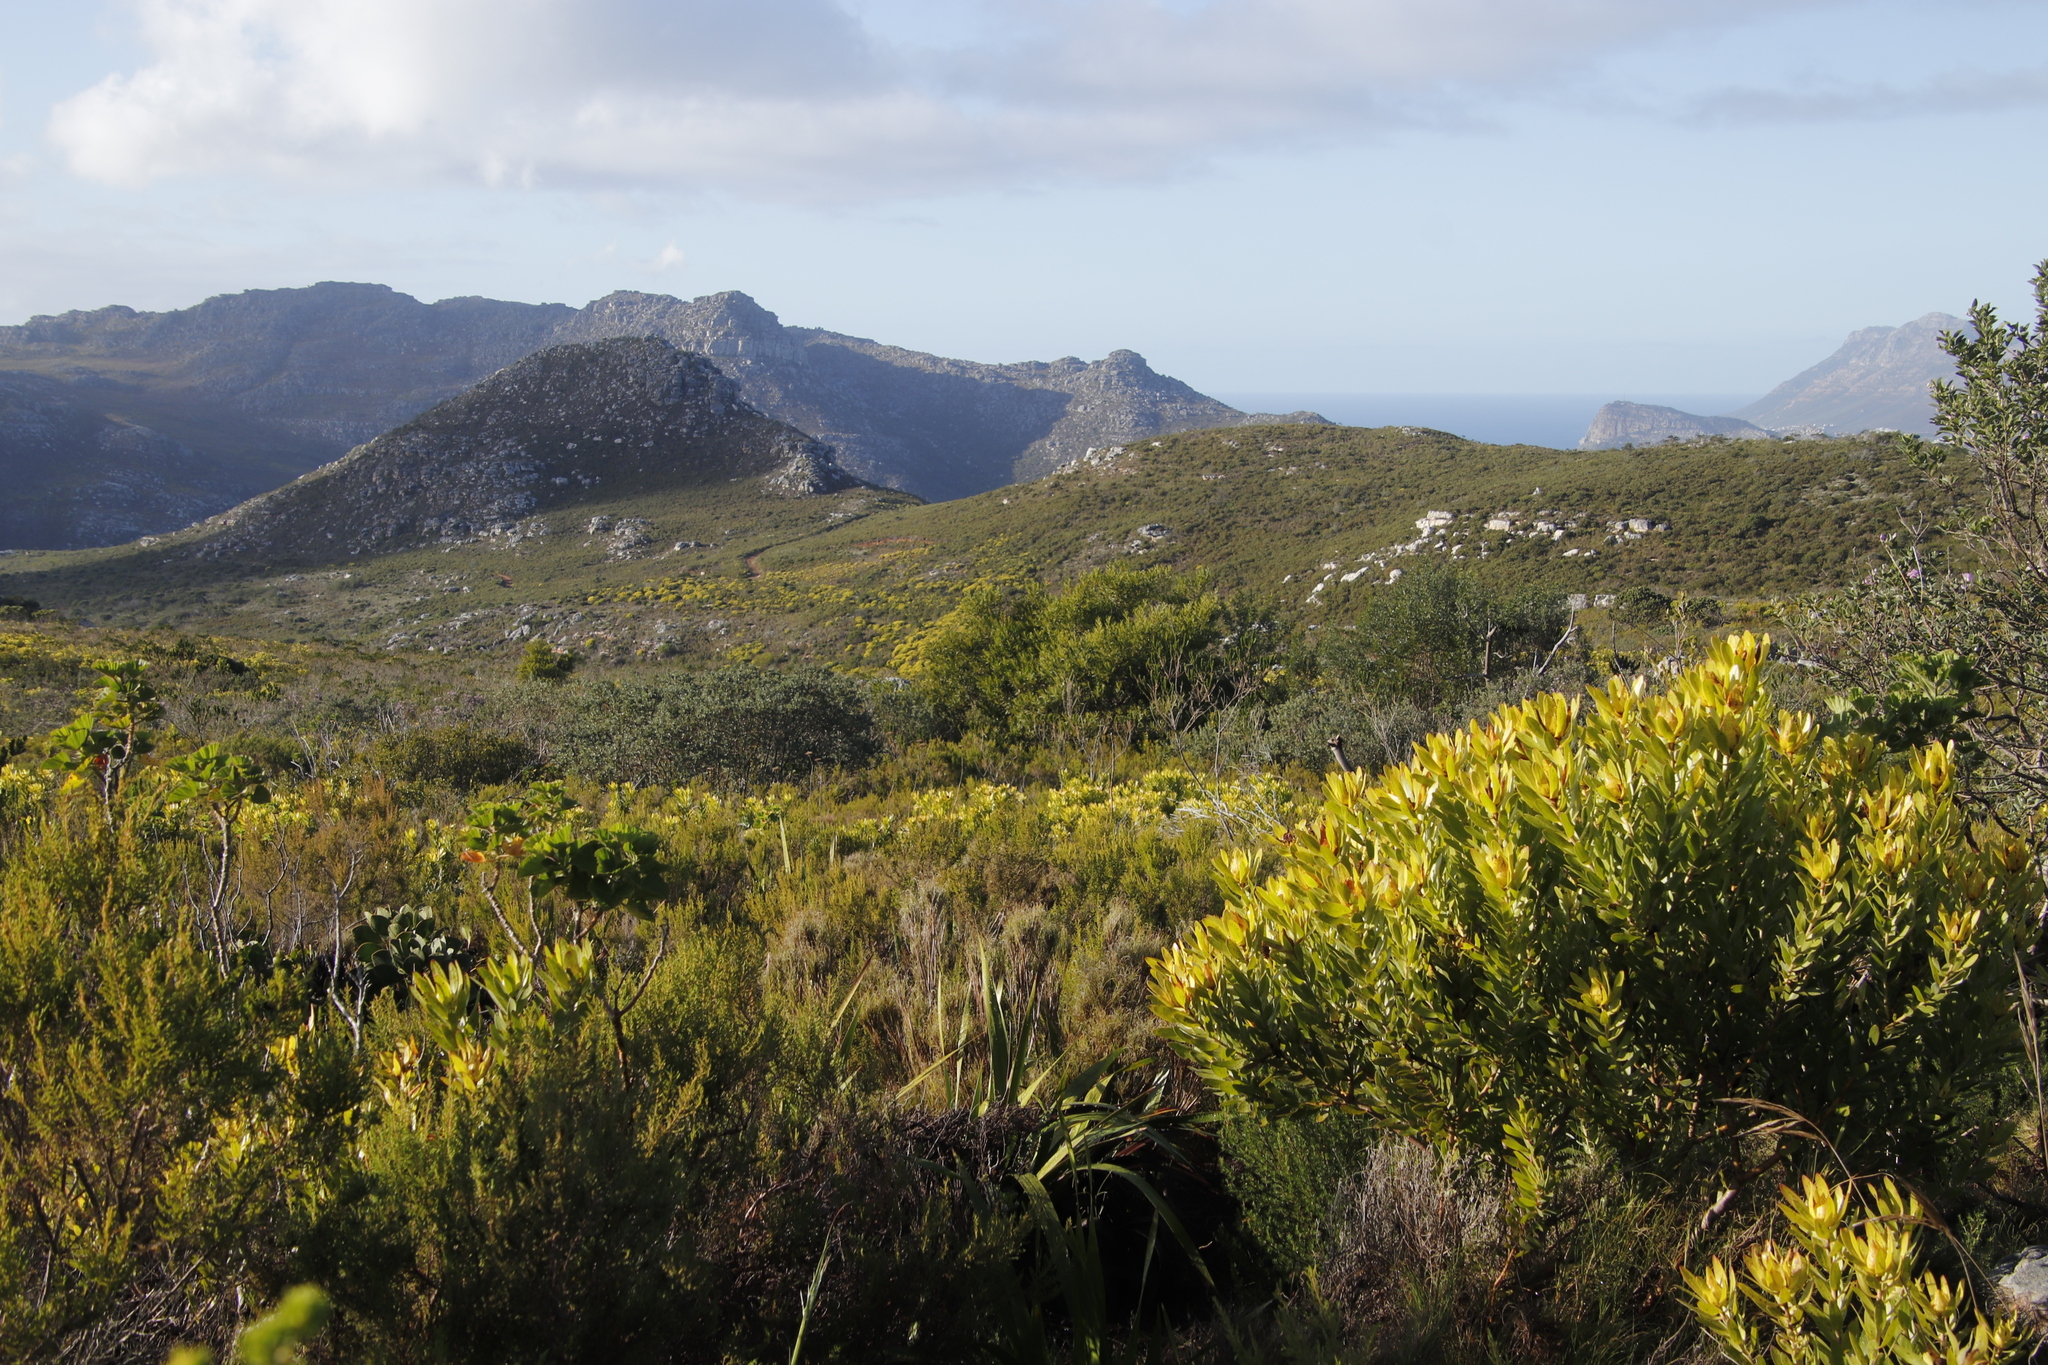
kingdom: Plantae
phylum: Tracheophyta
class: Magnoliopsida
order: Fabales
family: Fabaceae
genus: Acacia
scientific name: Acacia longifolia
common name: Sydney golden wattle
